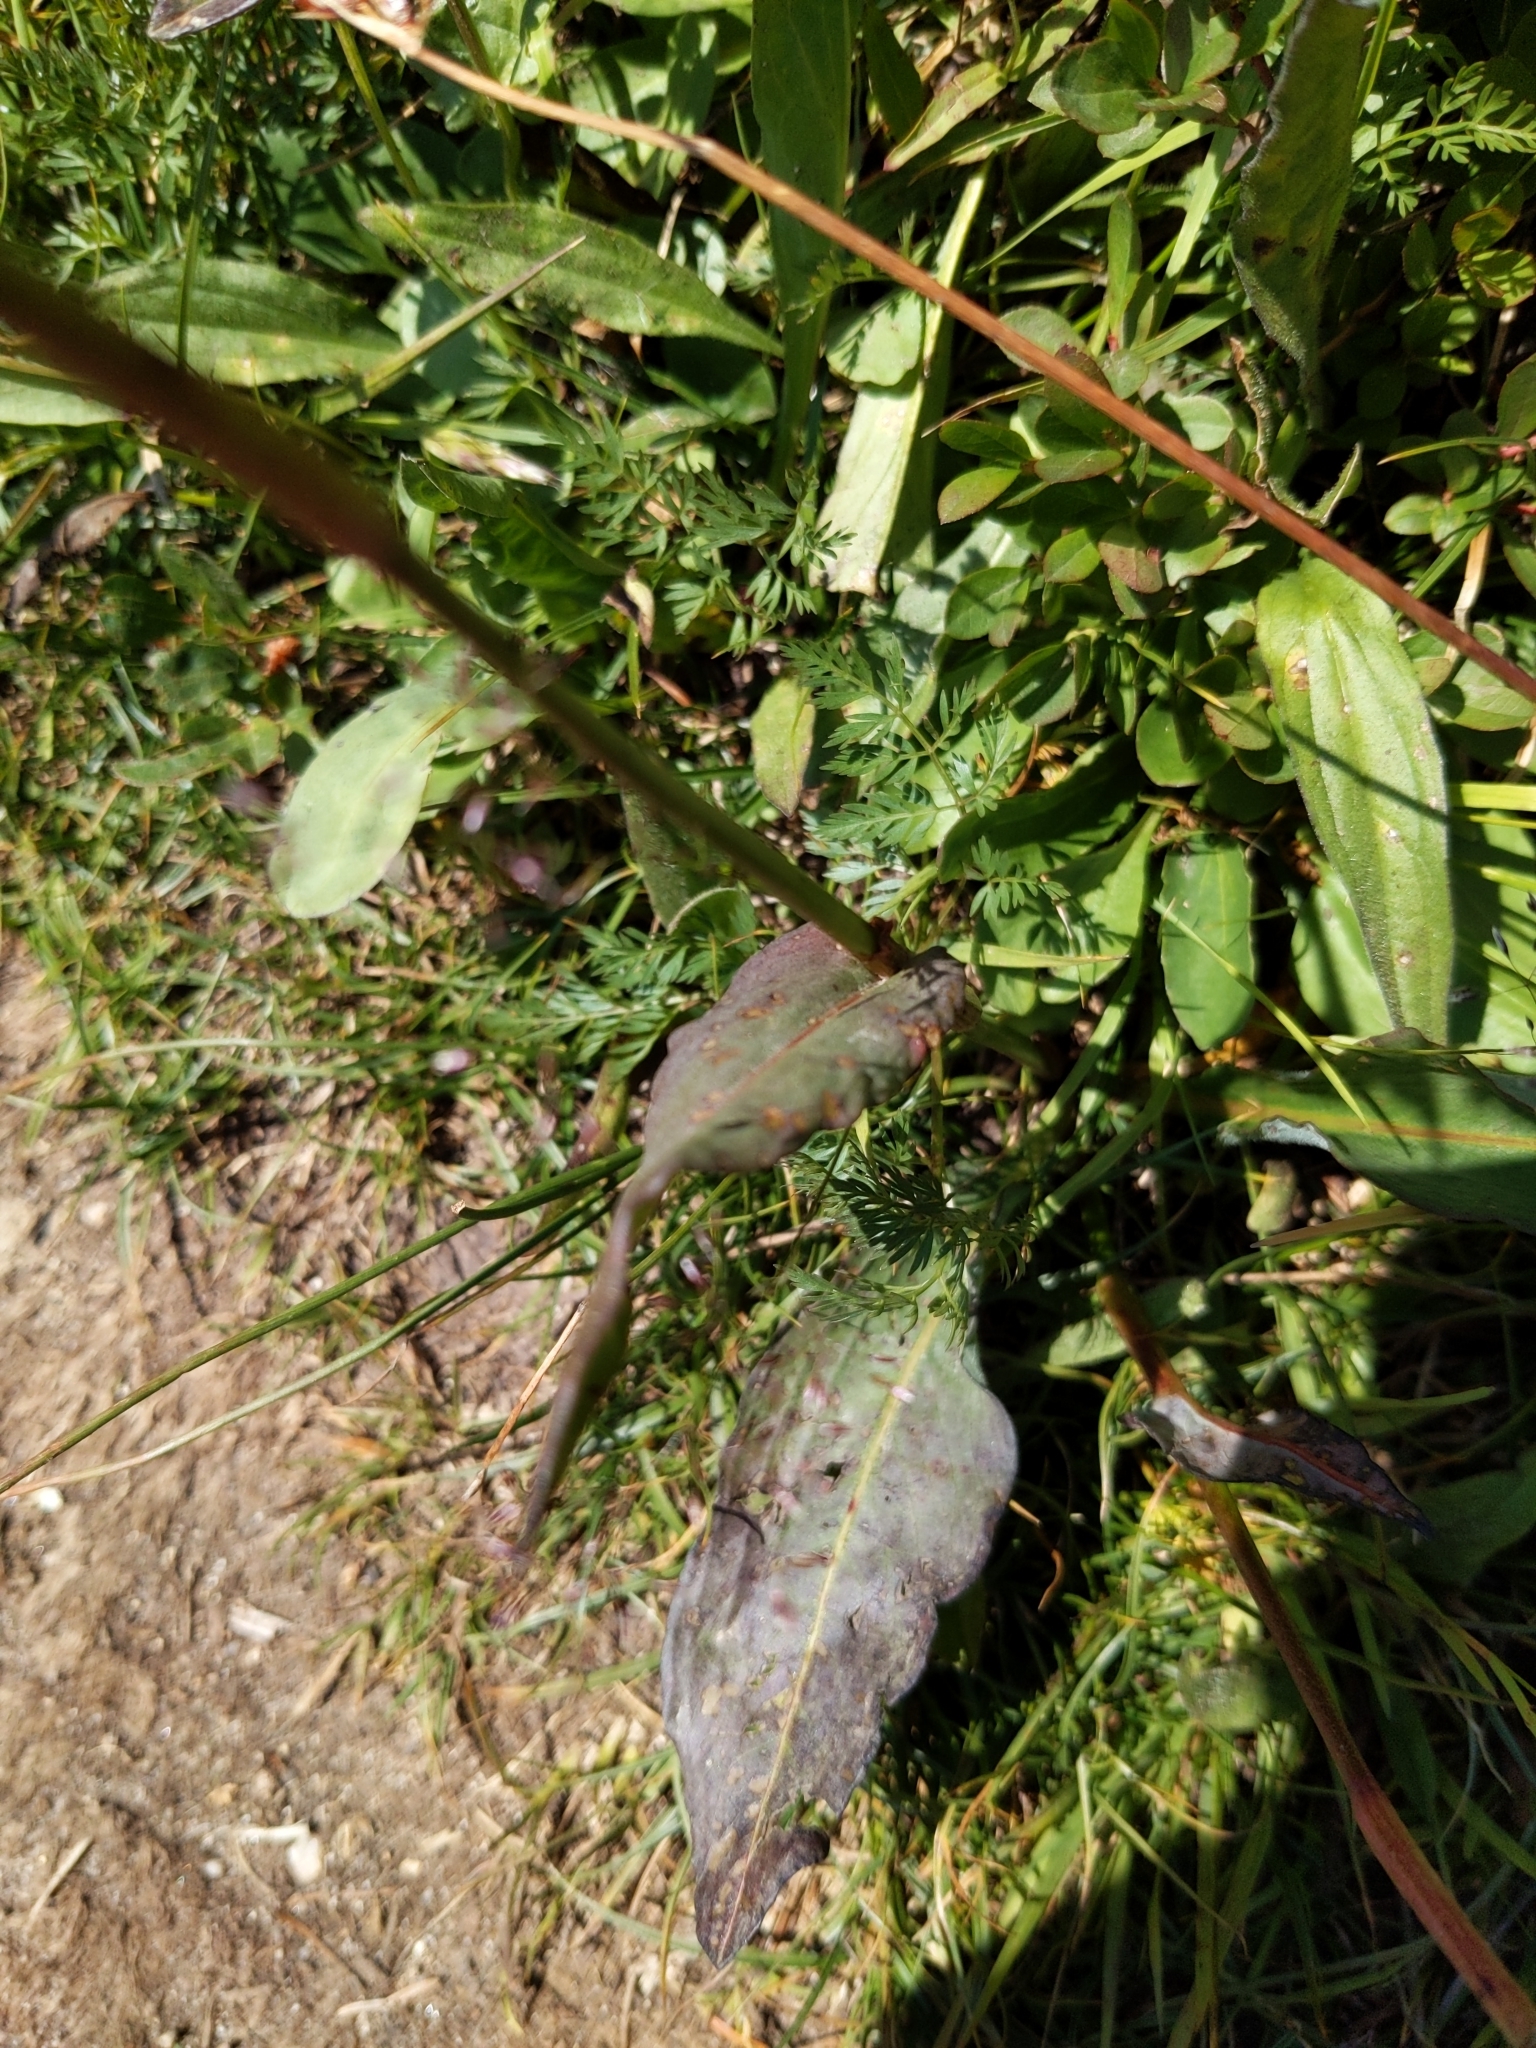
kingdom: Plantae
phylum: Tracheophyta
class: Magnoliopsida
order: Caryophyllales
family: Polygonaceae
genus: Bistorta
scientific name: Bistorta bistortoides
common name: American bistort
